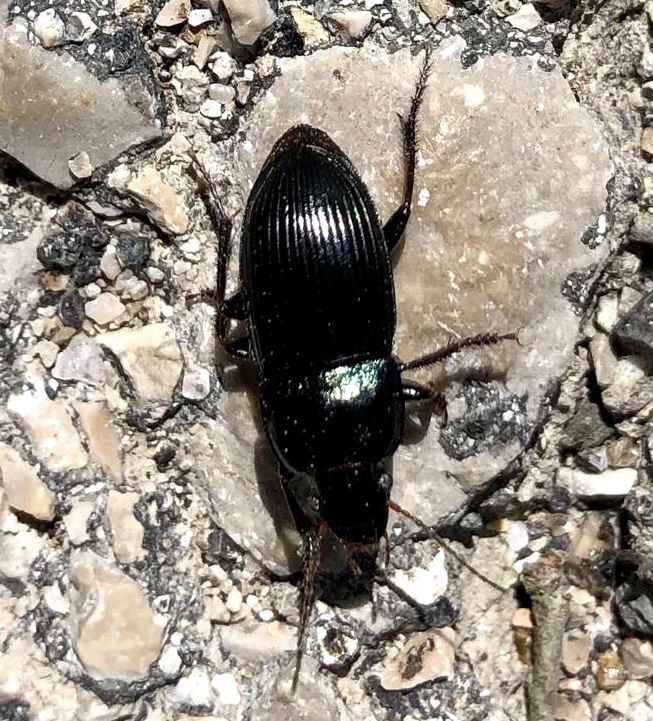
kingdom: Animalia
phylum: Arthropoda
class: Insecta
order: Coleoptera
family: Carabidae
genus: Harpalus
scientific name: Harpalus dimidiatus
